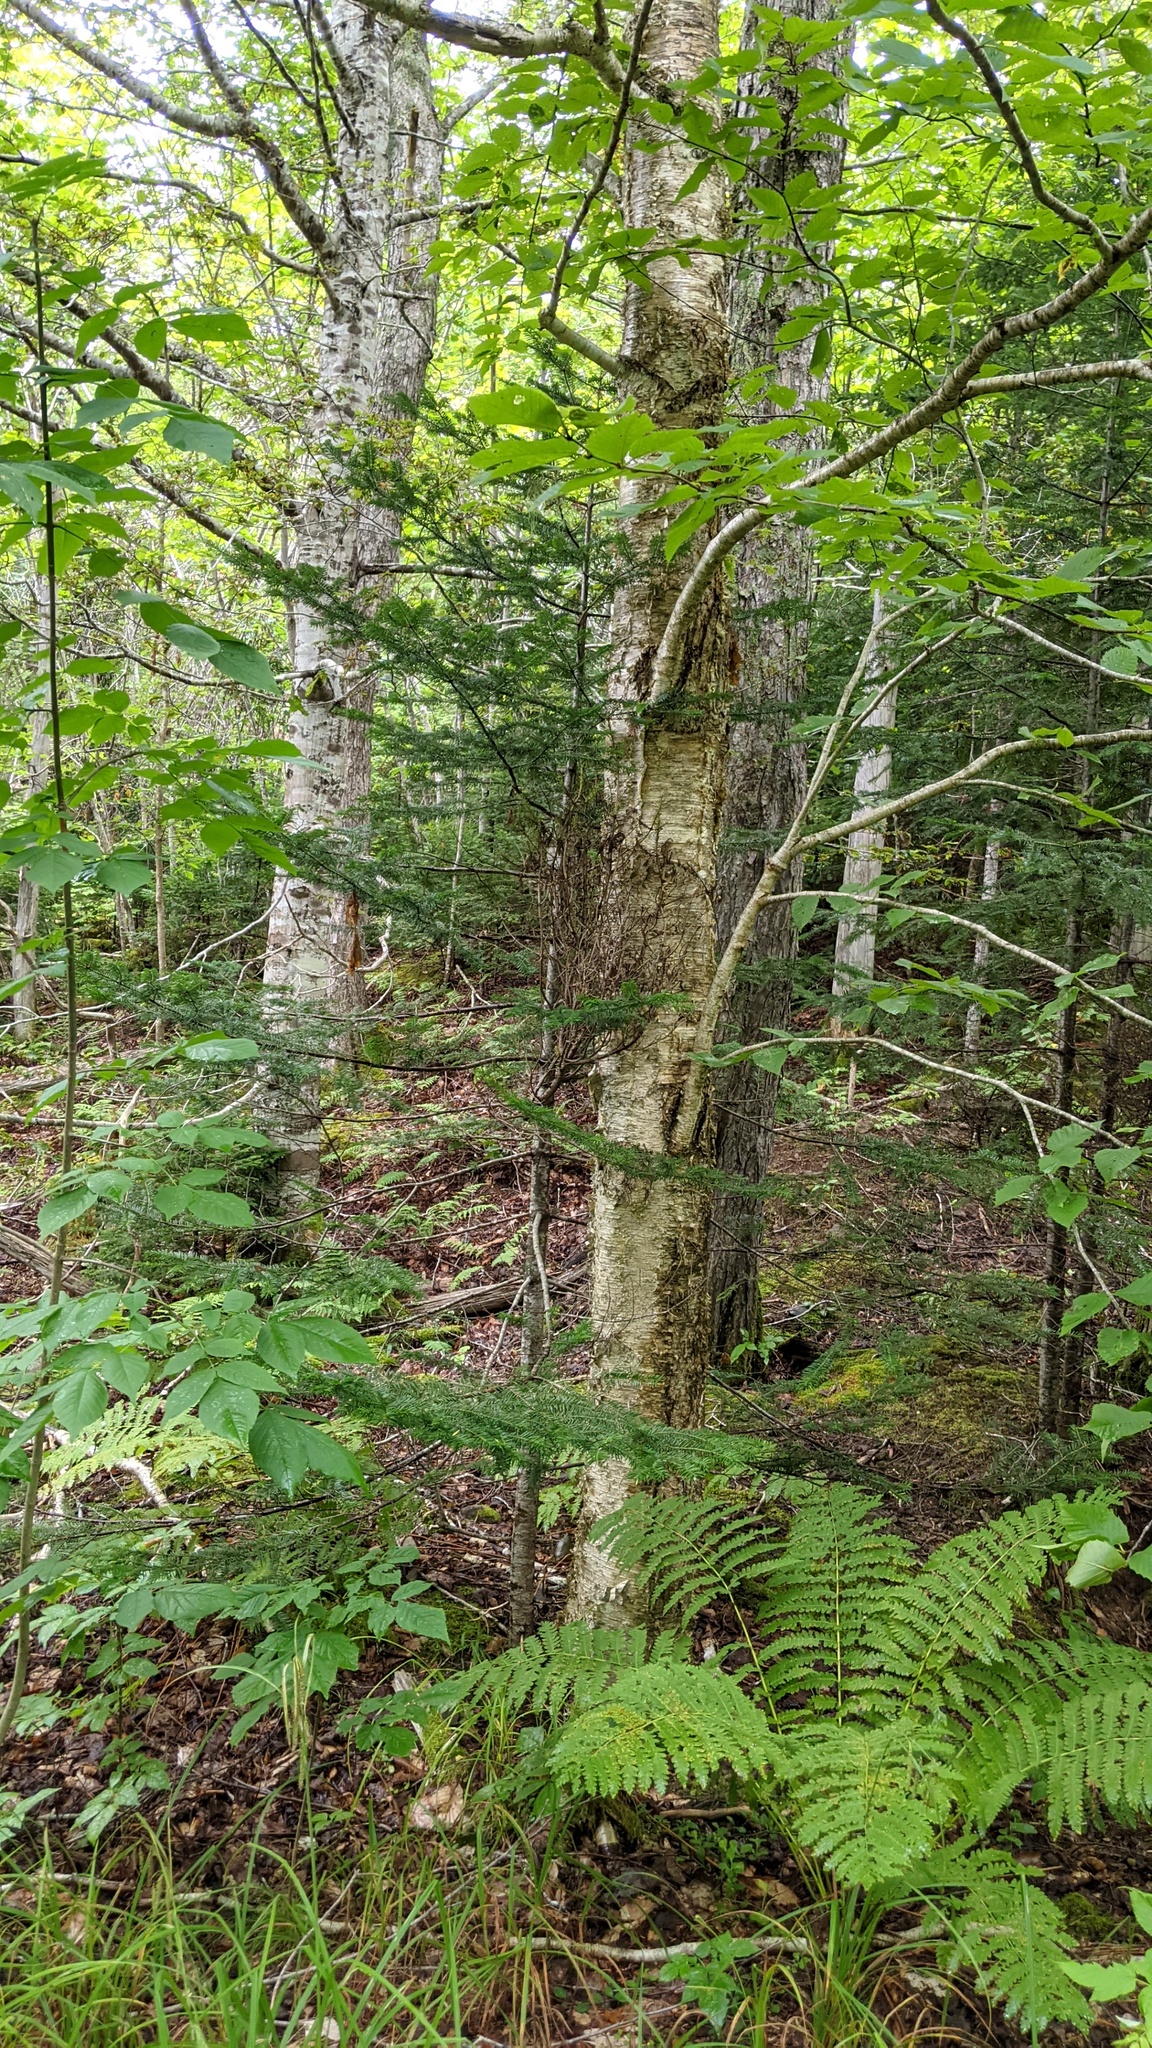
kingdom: Plantae
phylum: Tracheophyta
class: Magnoliopsida
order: Fagales
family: Betulaceae
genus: Betula
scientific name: Betula alleghaniensis
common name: Yellow birch
